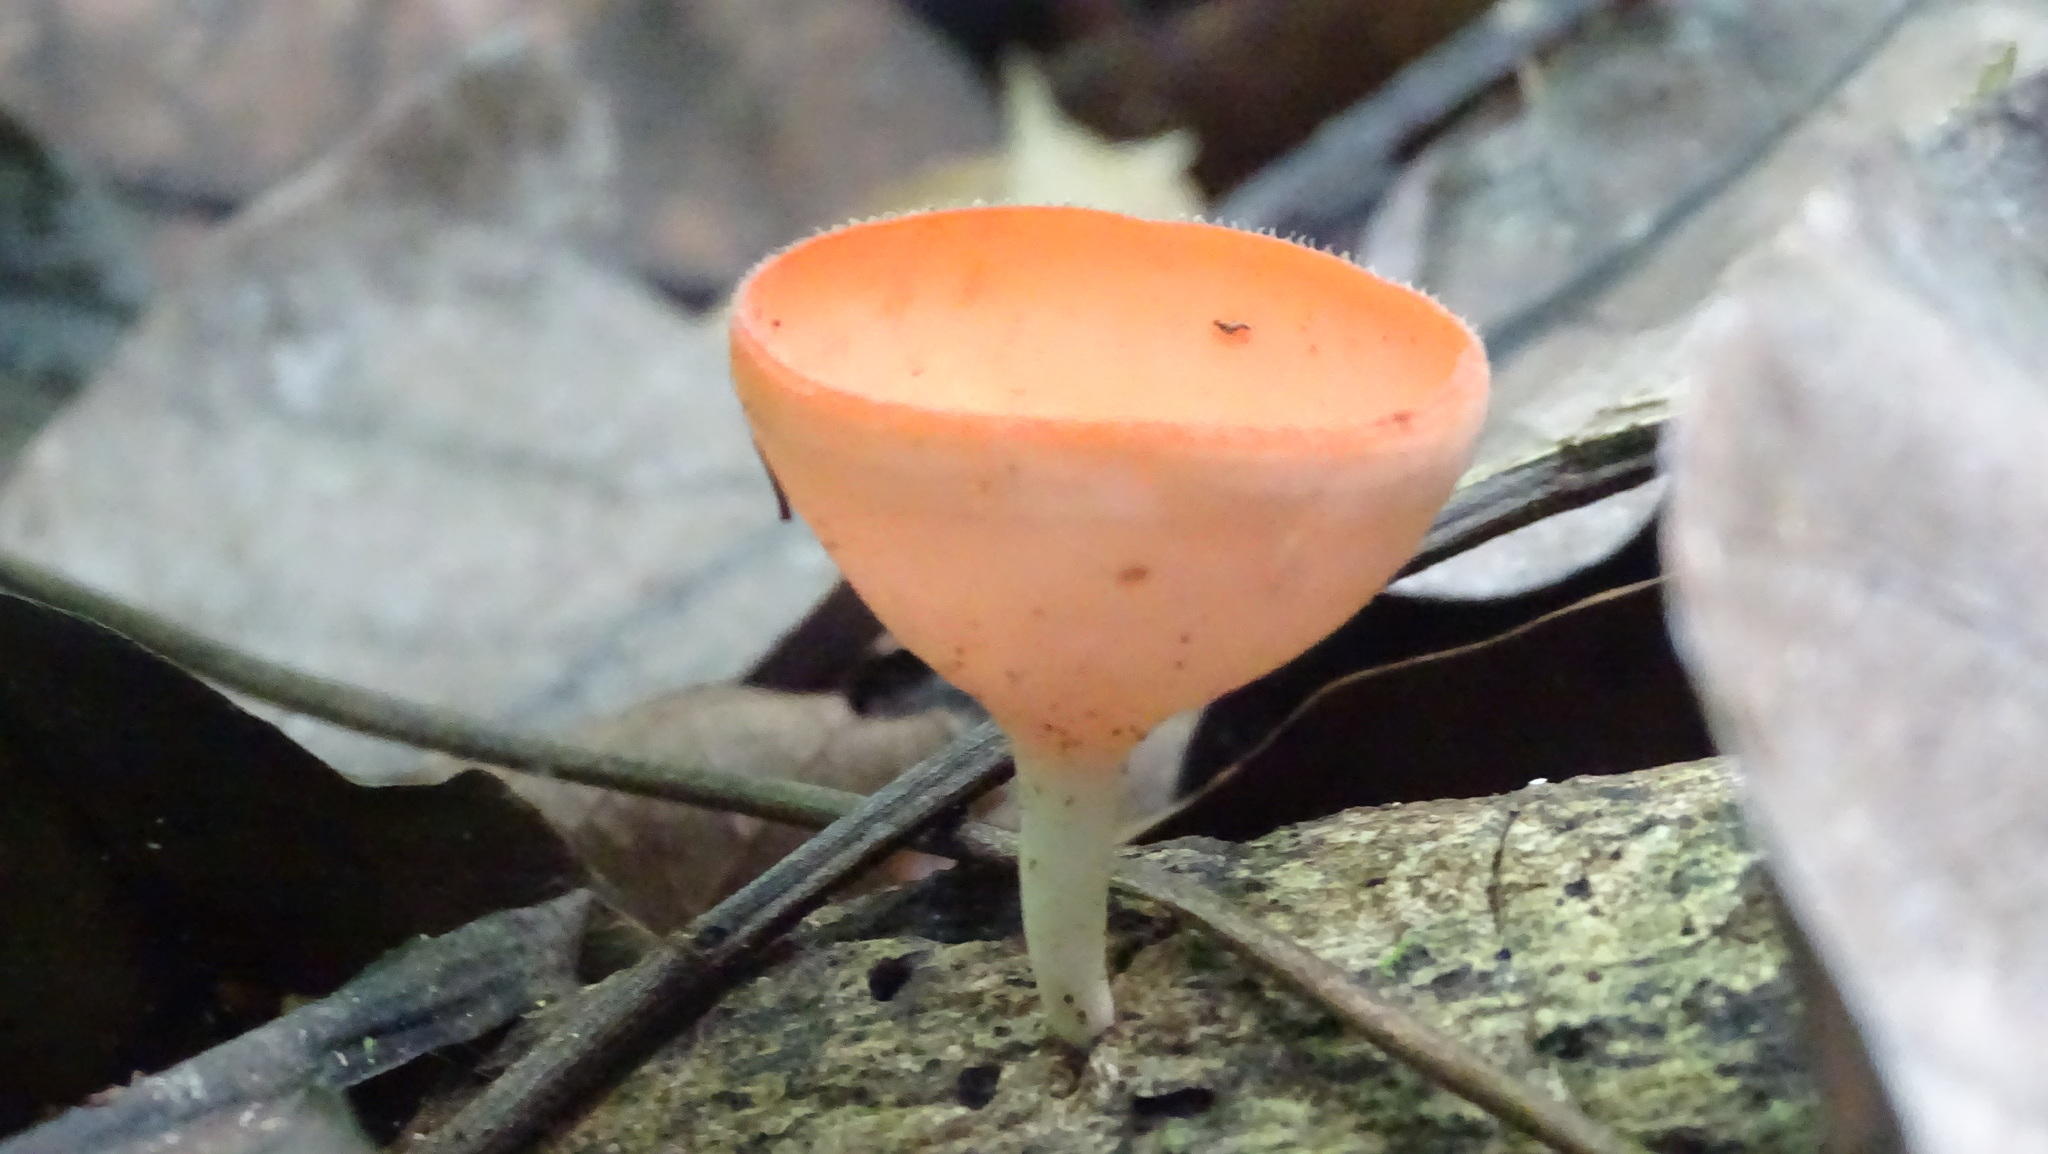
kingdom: Fungi
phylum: Ascomycota
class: Pezizomycetes
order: Pezizales
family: Sarcoscyphaceae
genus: Cookeina
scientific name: Cookeina speciosa
